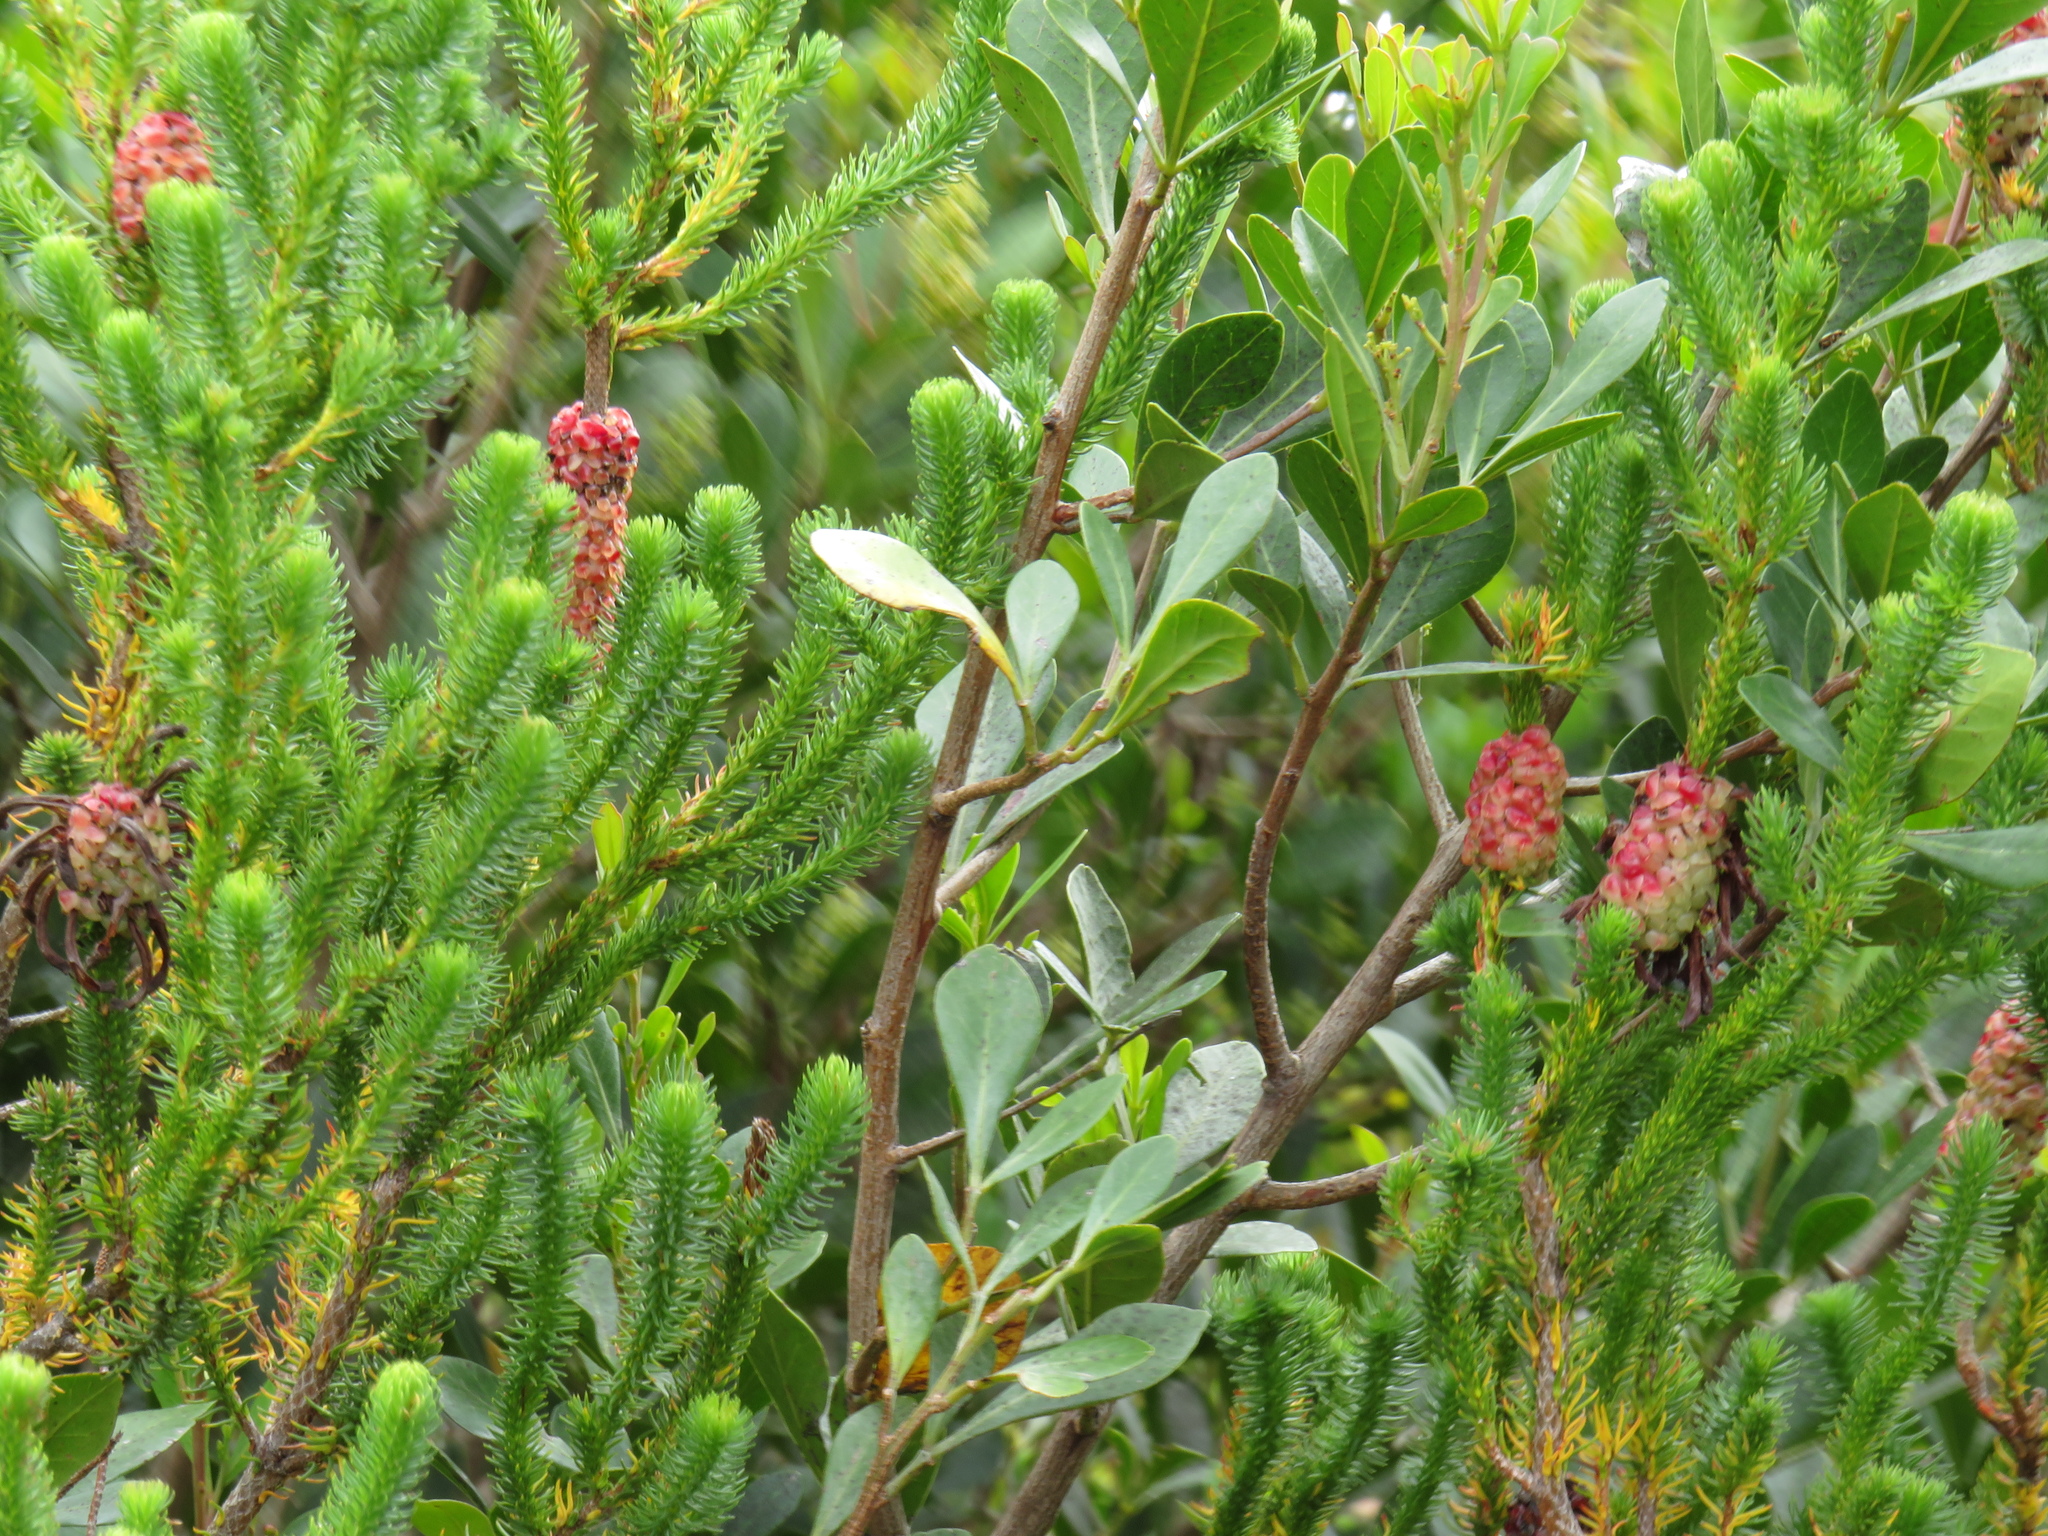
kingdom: Plantae
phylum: Tracheophyta
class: Magnoliopsida
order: Sapindales
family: Anacardiaceae
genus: Searsia
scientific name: Searsia lucida
